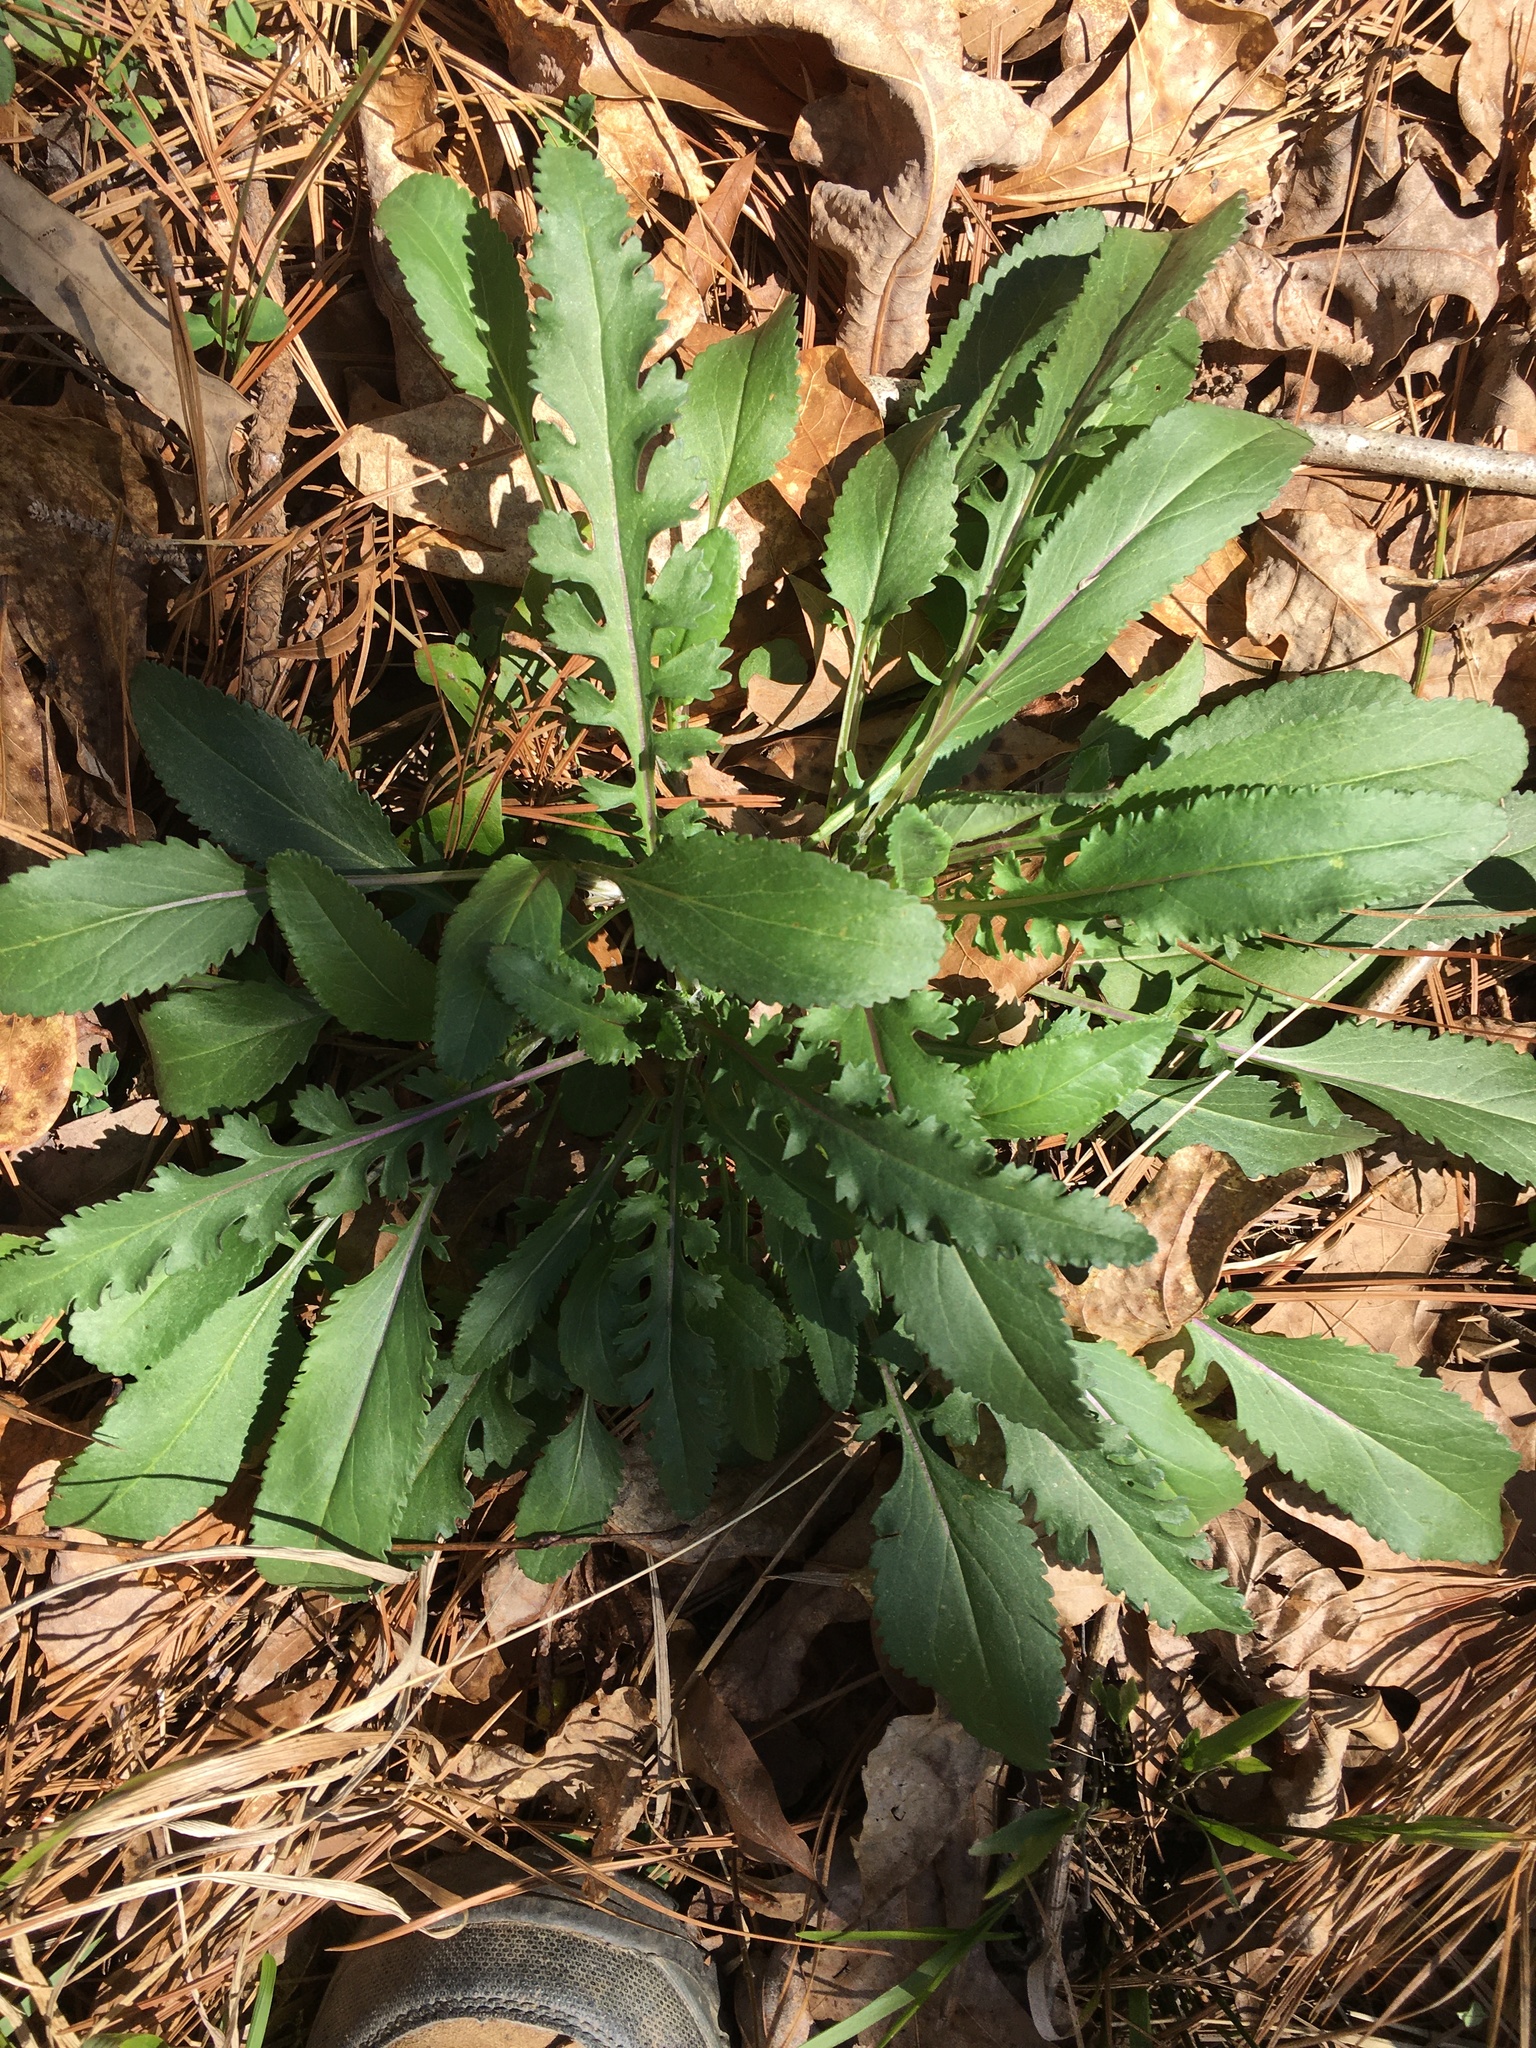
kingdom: Plantae
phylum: Tracheophyta
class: Magnoliopsida
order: Asterales
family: Asteraceae
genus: Packera
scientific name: Packera anonyma
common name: Small ragwort
